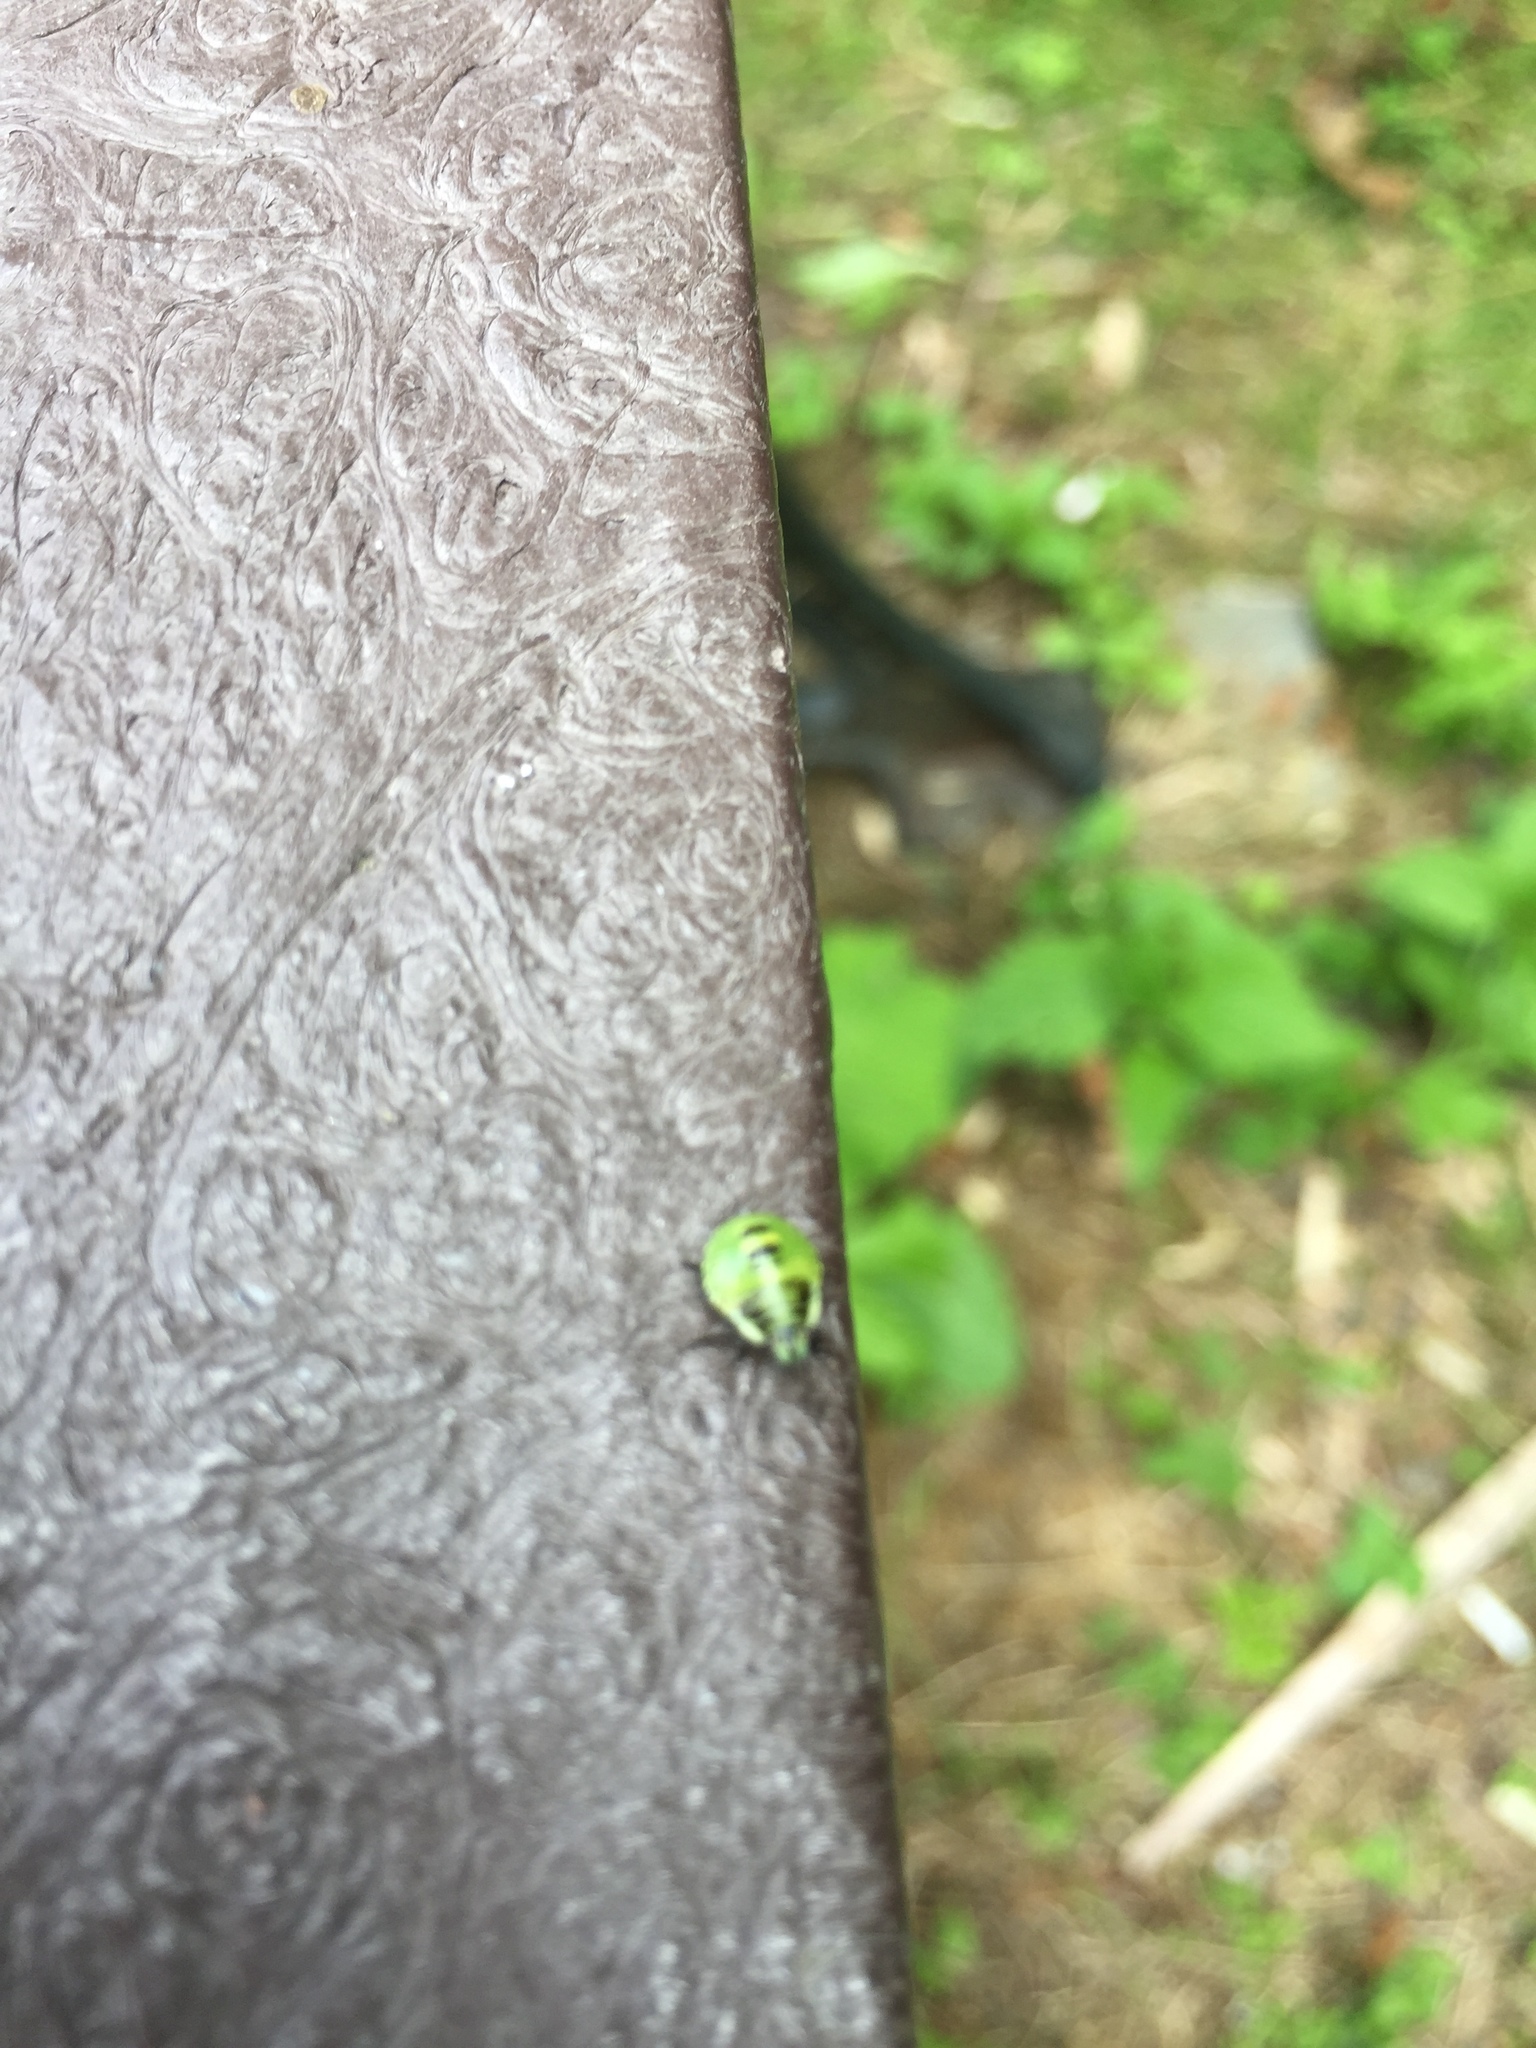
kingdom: Animalia
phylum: Arthropoda
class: Insecta
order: Hemiptera
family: Pentatomidae
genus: Palomena
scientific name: Palomena prasina
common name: Green shieldbug
